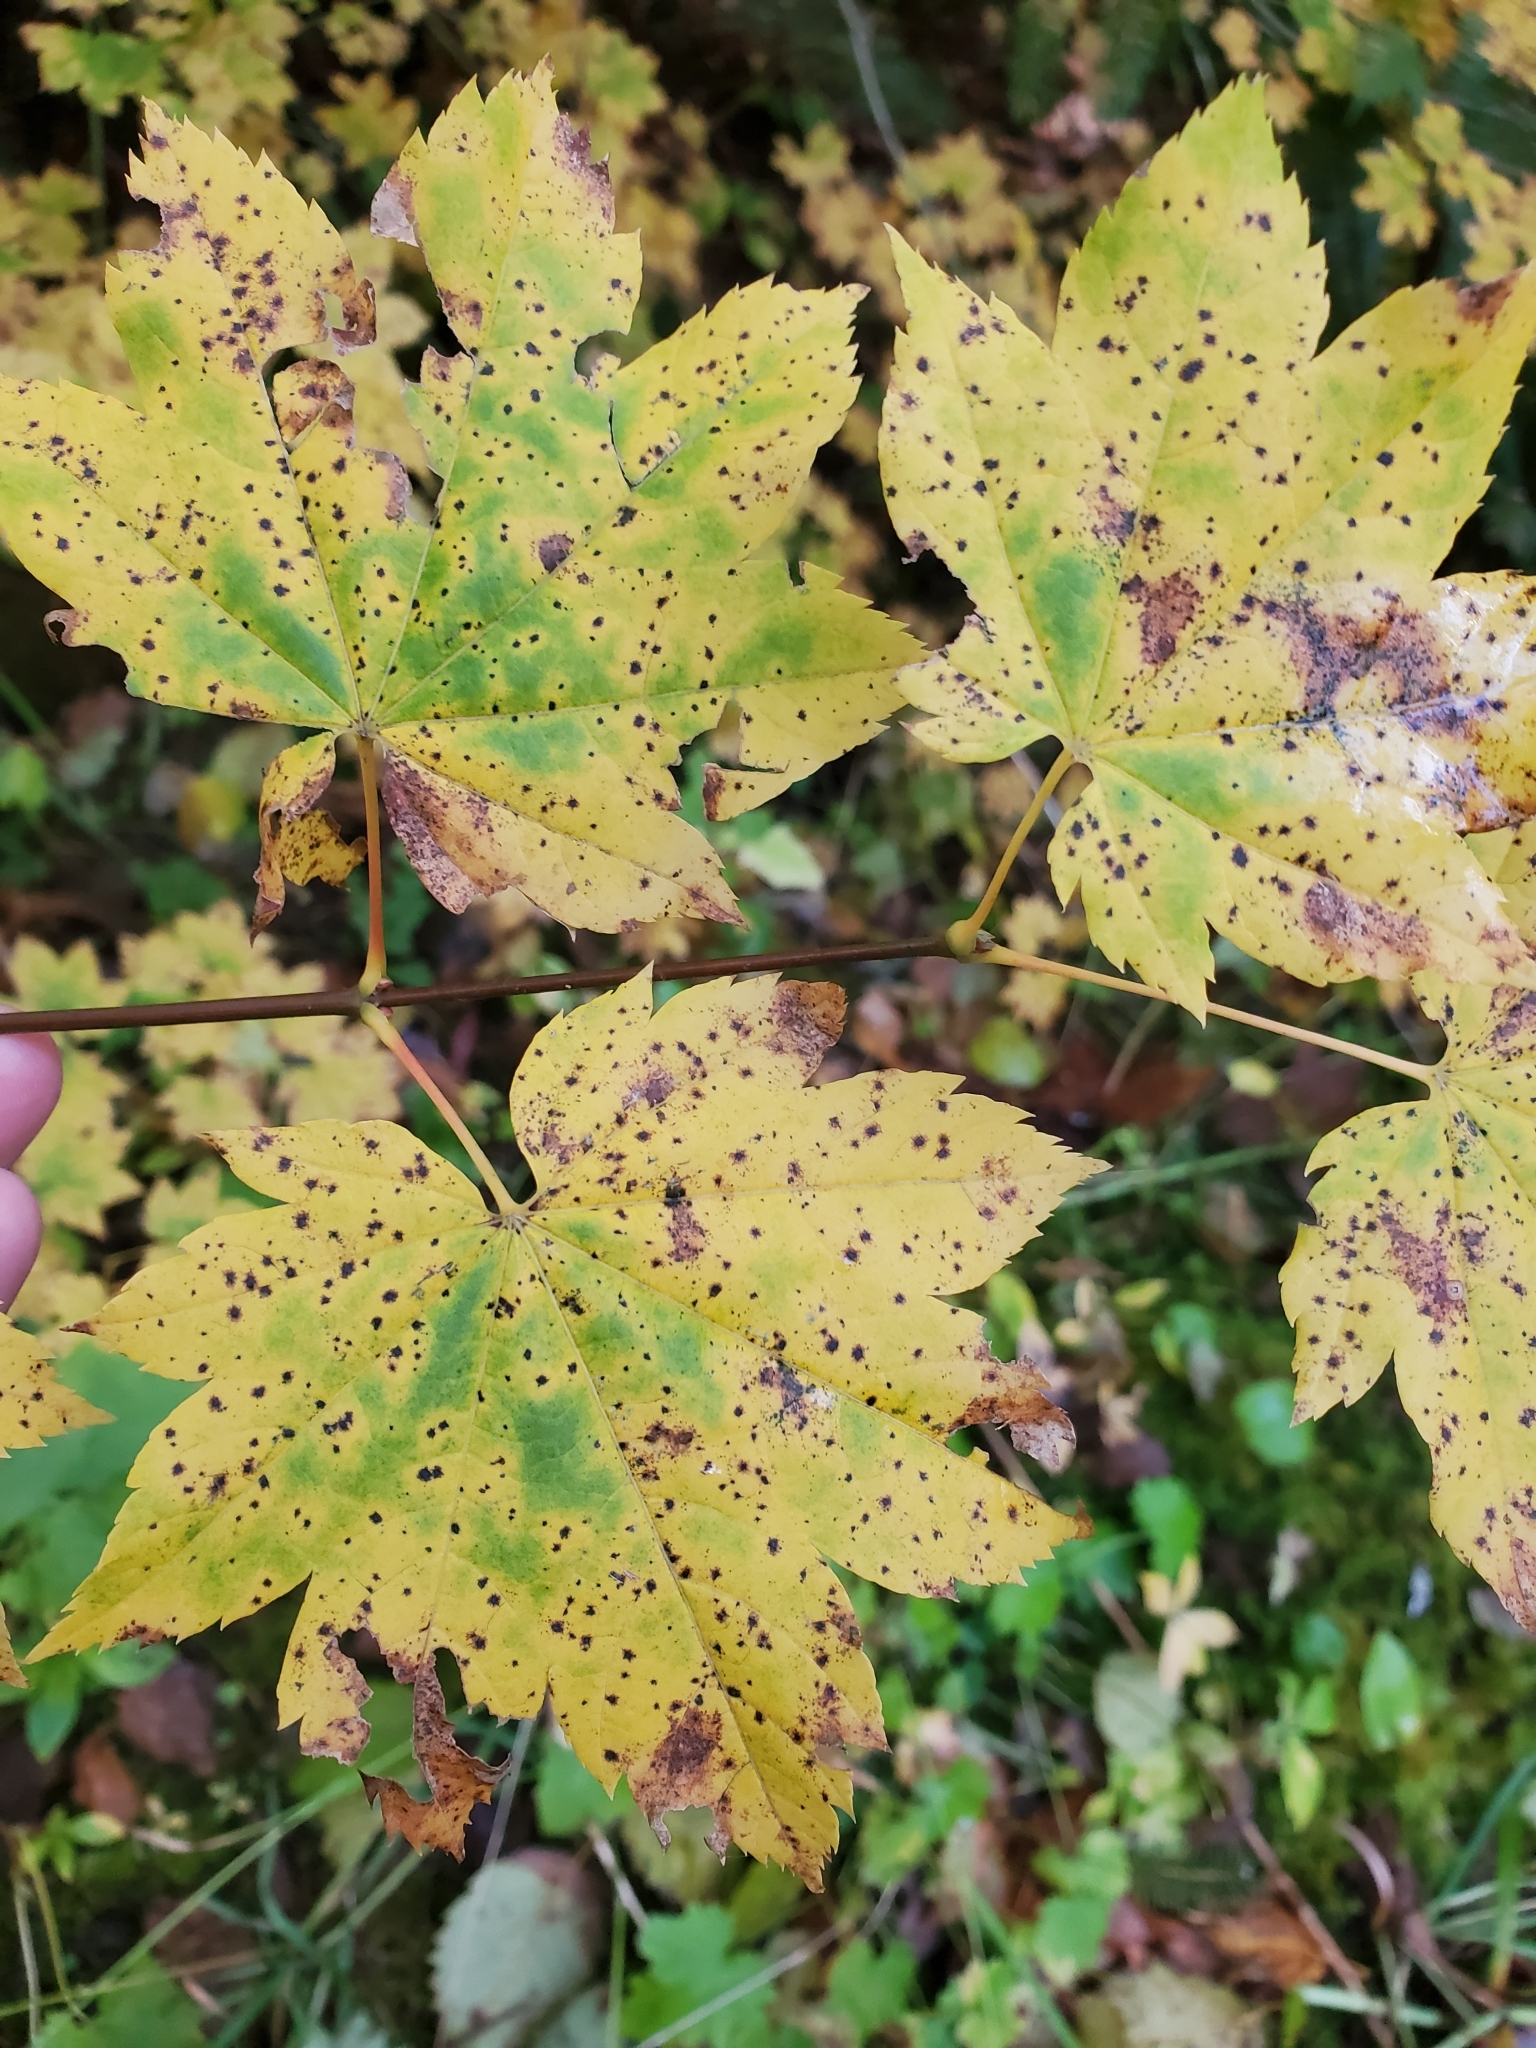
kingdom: Plantae
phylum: Tracheophyta
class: Magnoliopsida
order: Sapindales
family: Sapindaceae
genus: Acer
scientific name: Acer circinatum
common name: Vine maple
